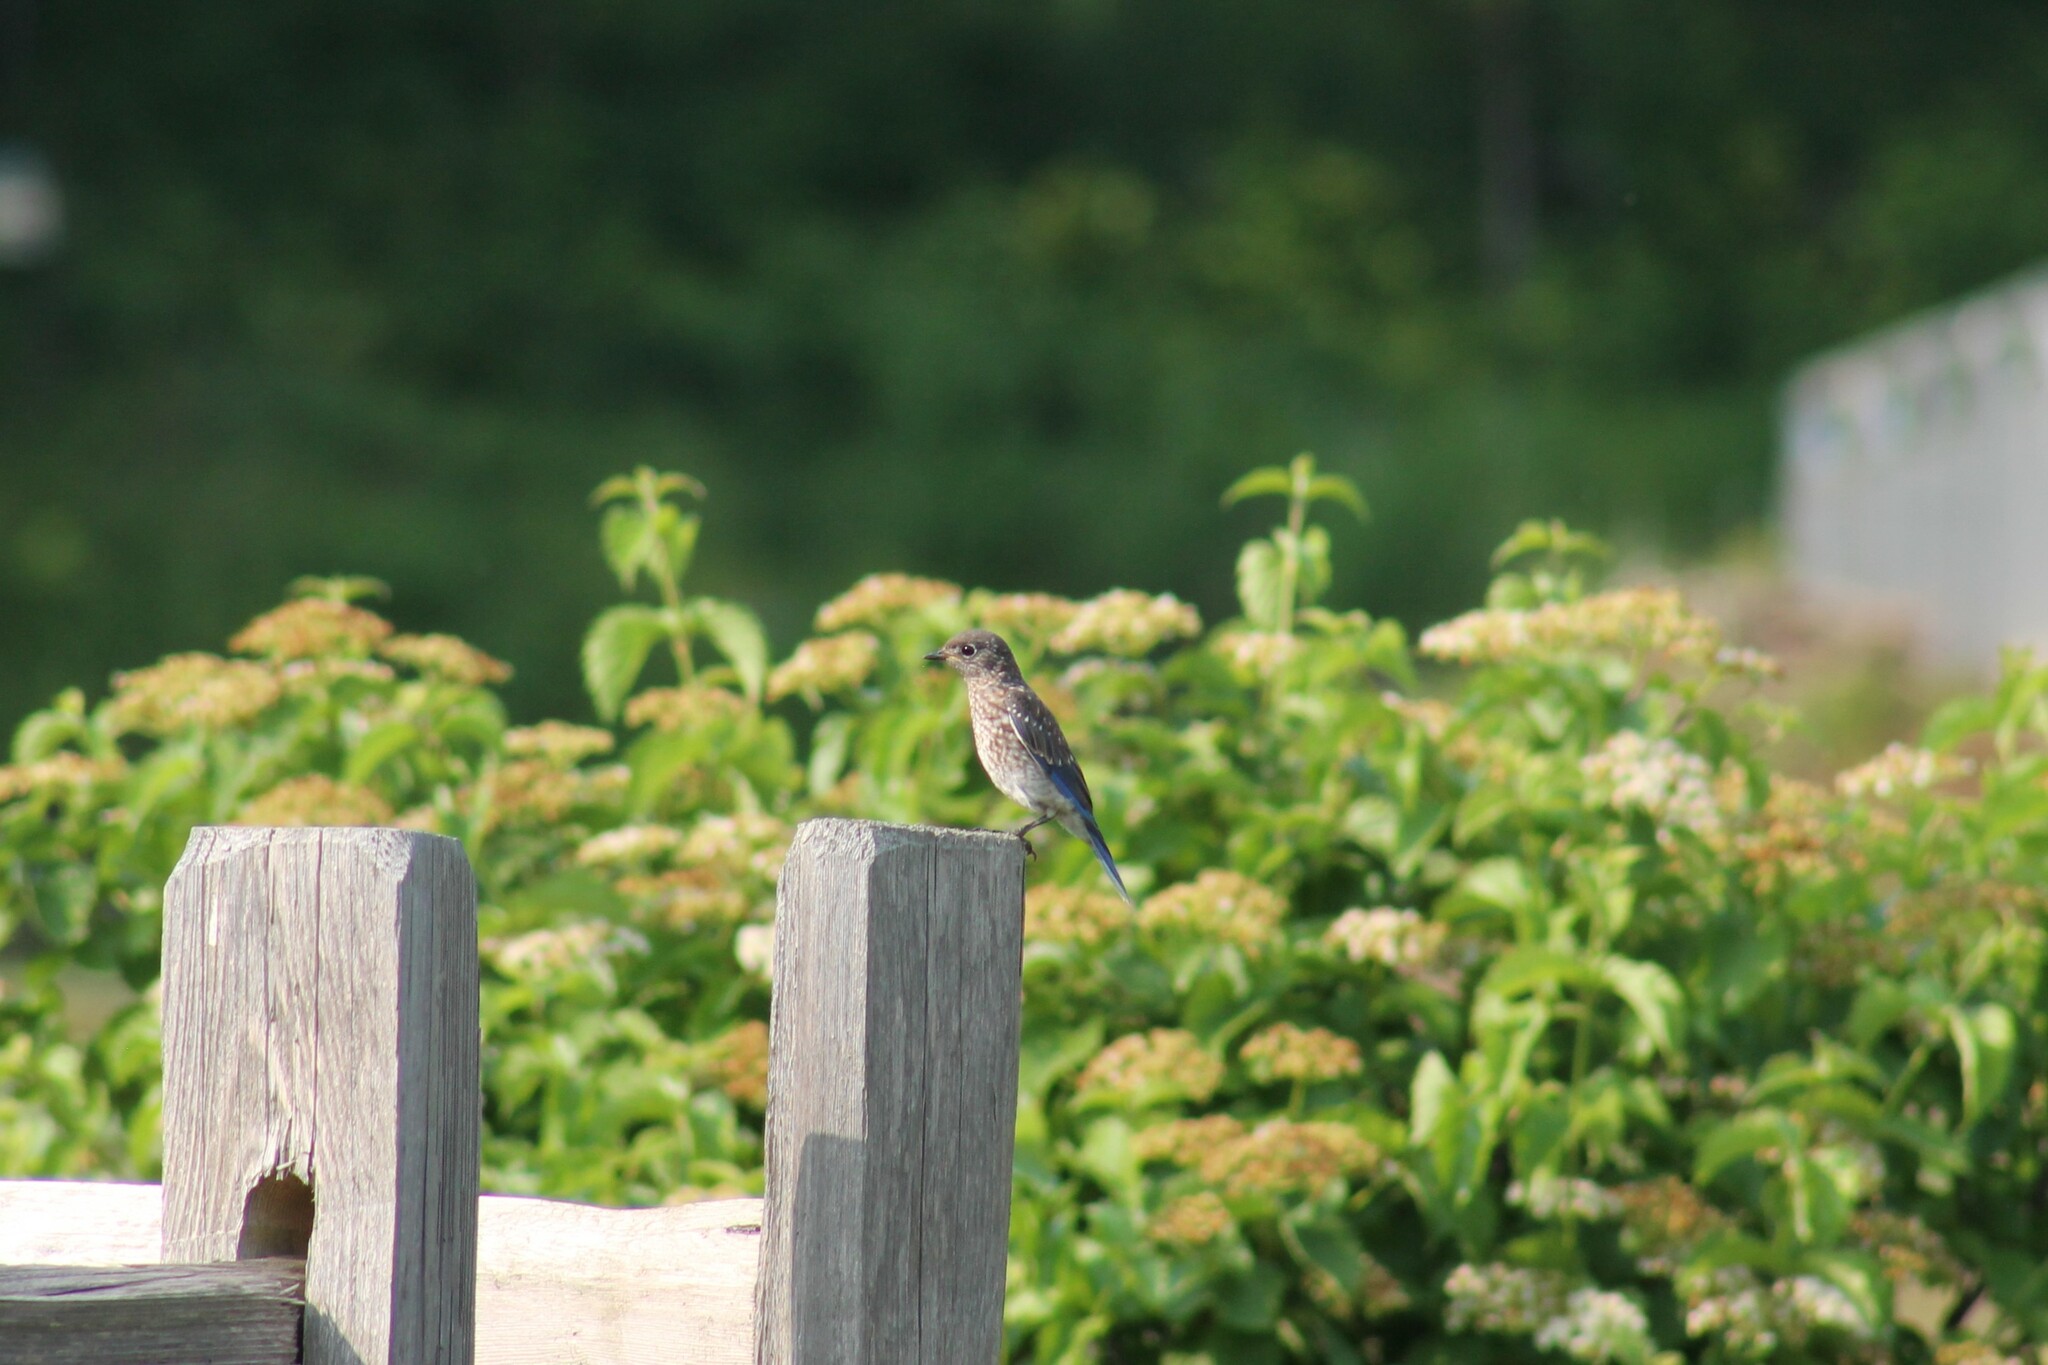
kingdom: Animalia
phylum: Chordata
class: Aves
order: Passeriformes
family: Turdidae
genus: Sialia
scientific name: Sialia sialis
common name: Eastern bluebird
